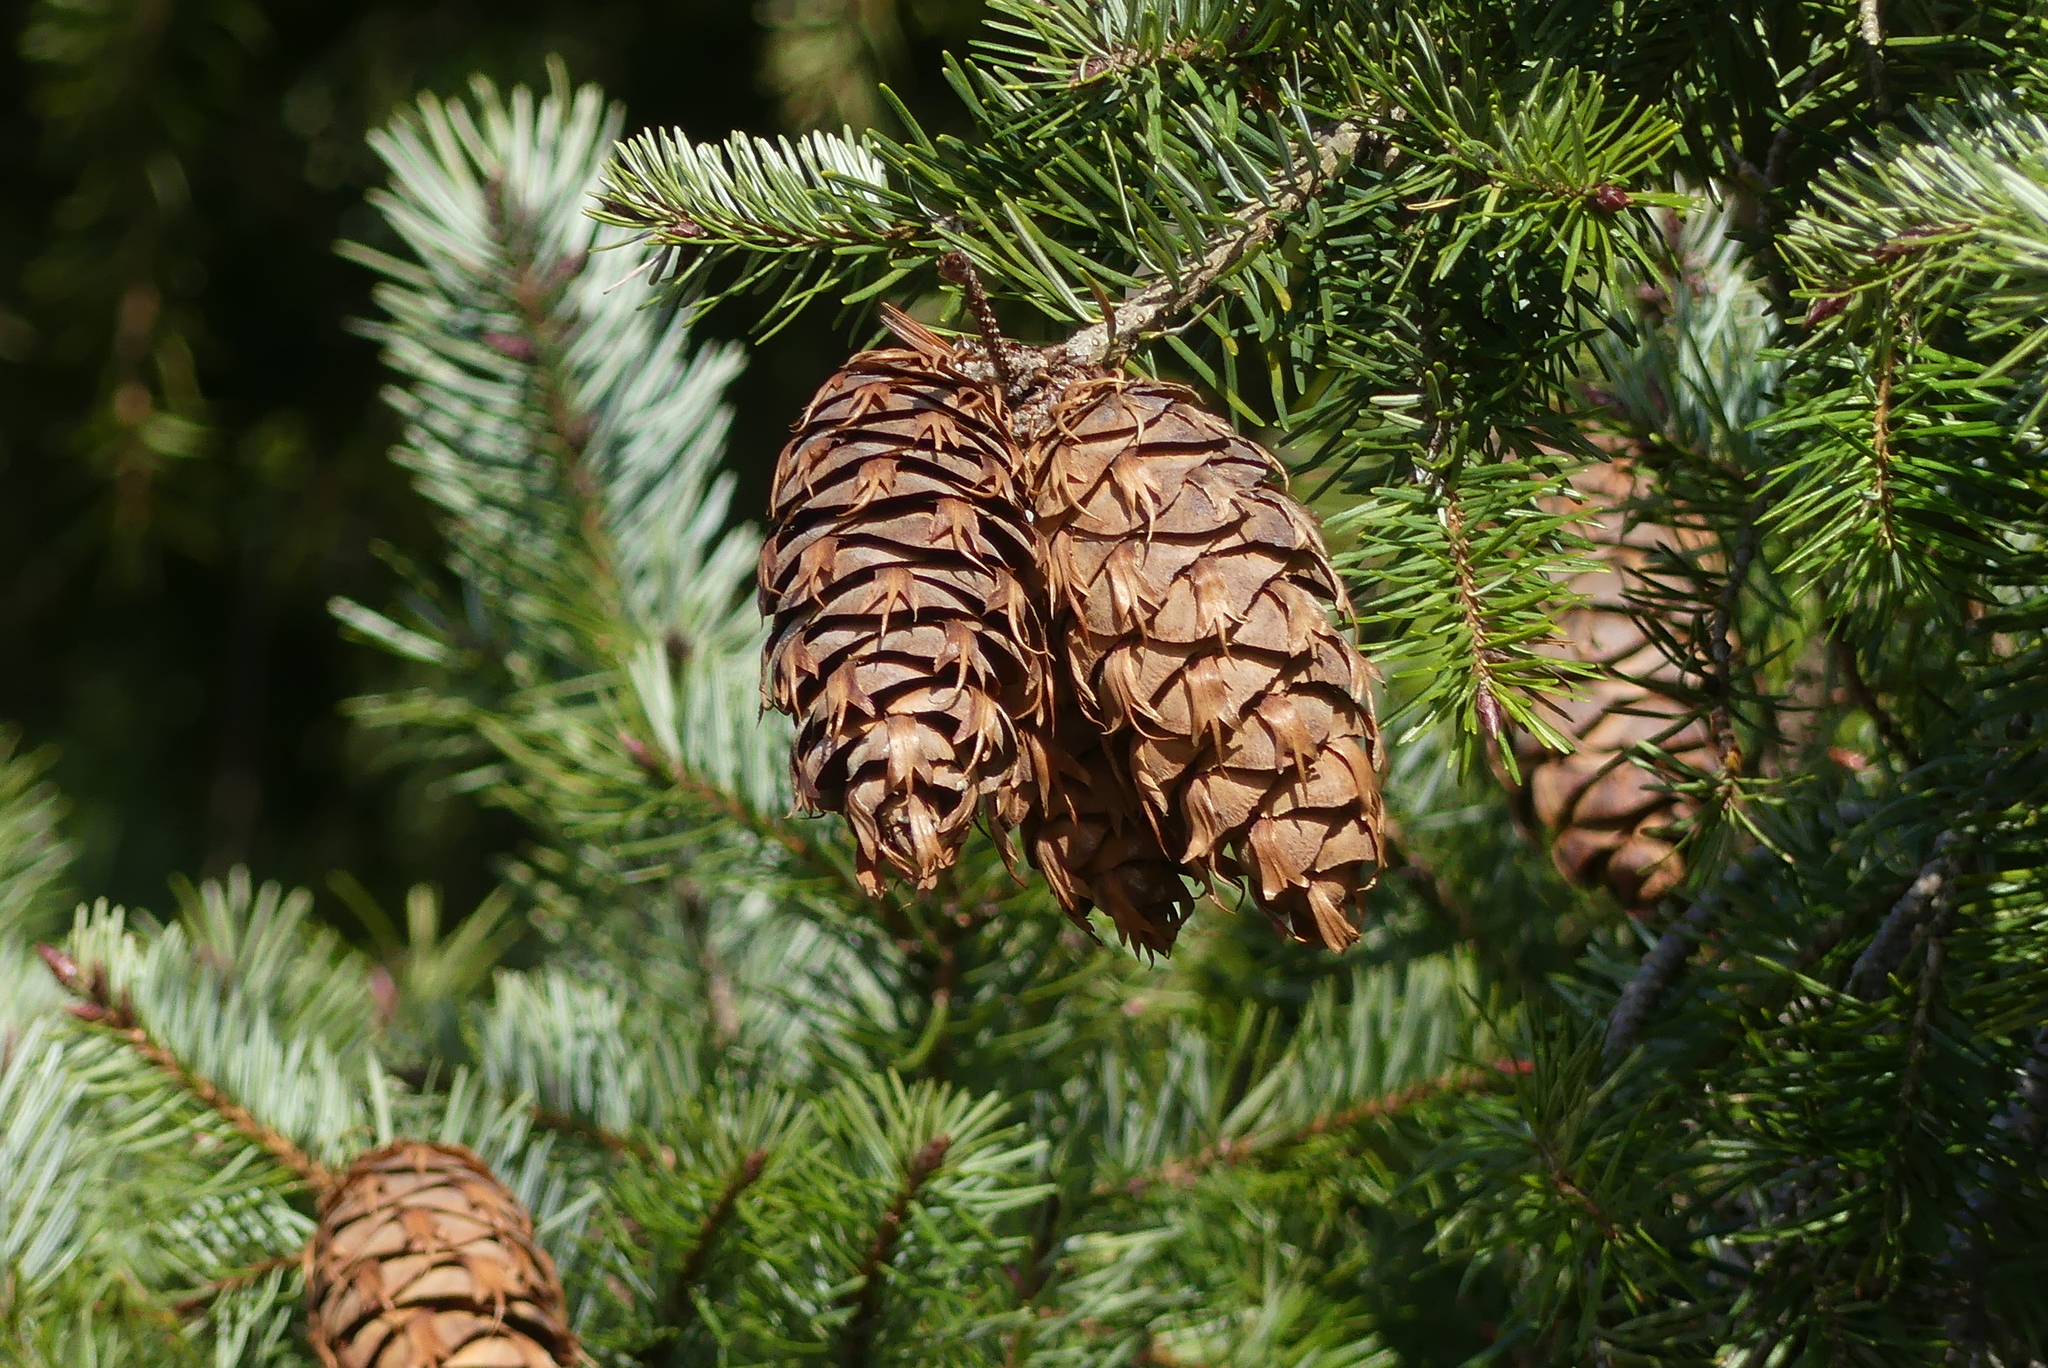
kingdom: Plantae
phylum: Tracheophyta
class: Pinopsida
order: Pinales
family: Pinaceae
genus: Pseudotsuga
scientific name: Pseudotsuga menziesii
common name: Douglas fir
